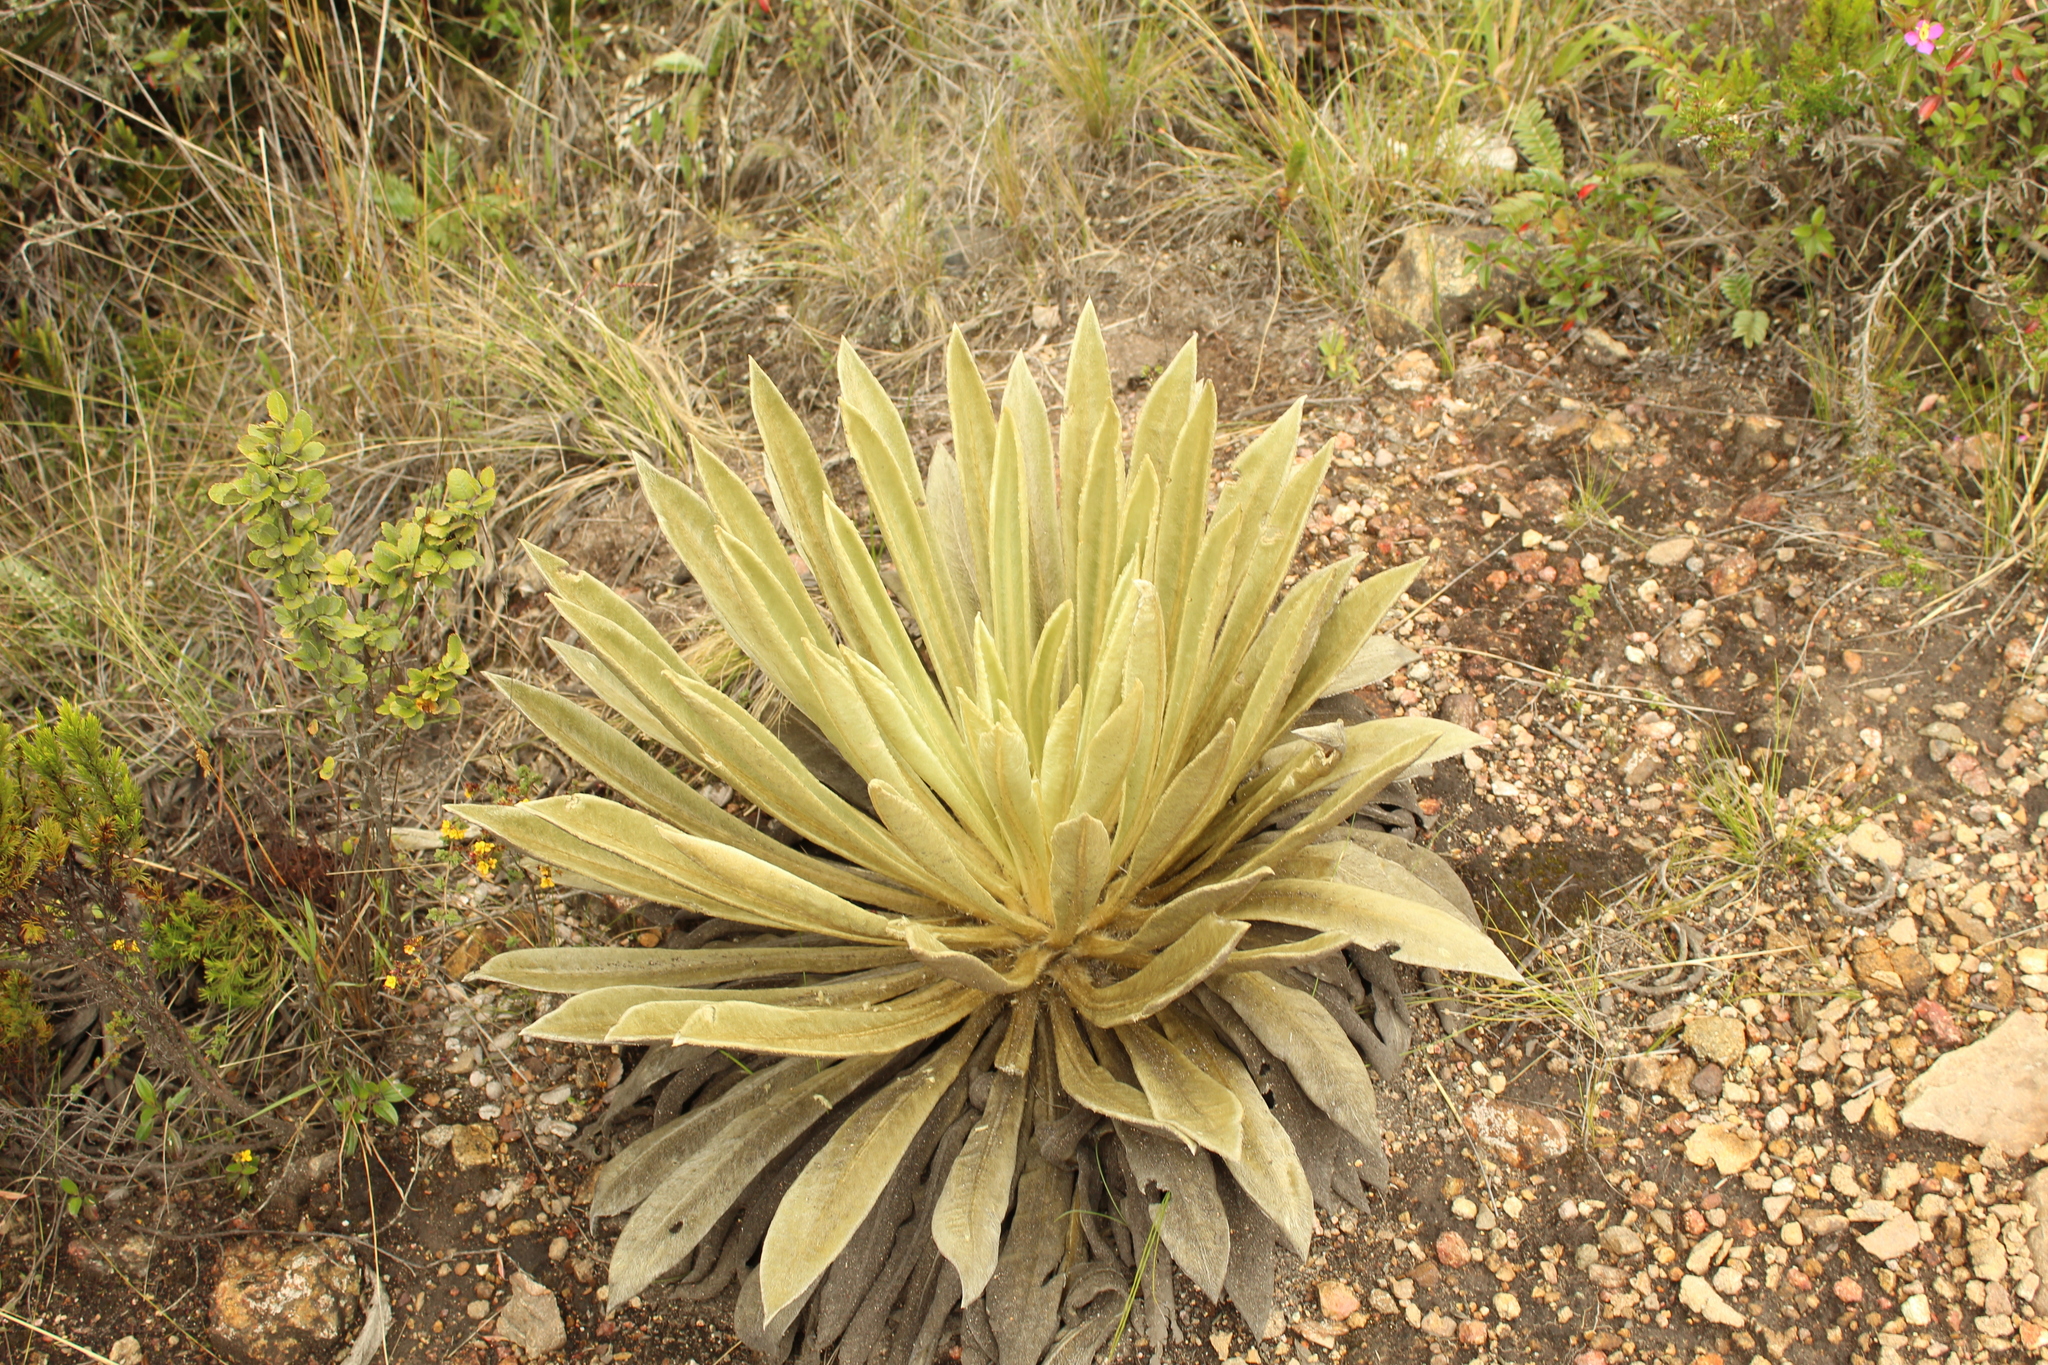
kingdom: Plantae
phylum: Tracheophyta
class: Magnoliopsida
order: Asterales
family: Asteraceae
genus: Espeletia
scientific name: Espeletia muiska
